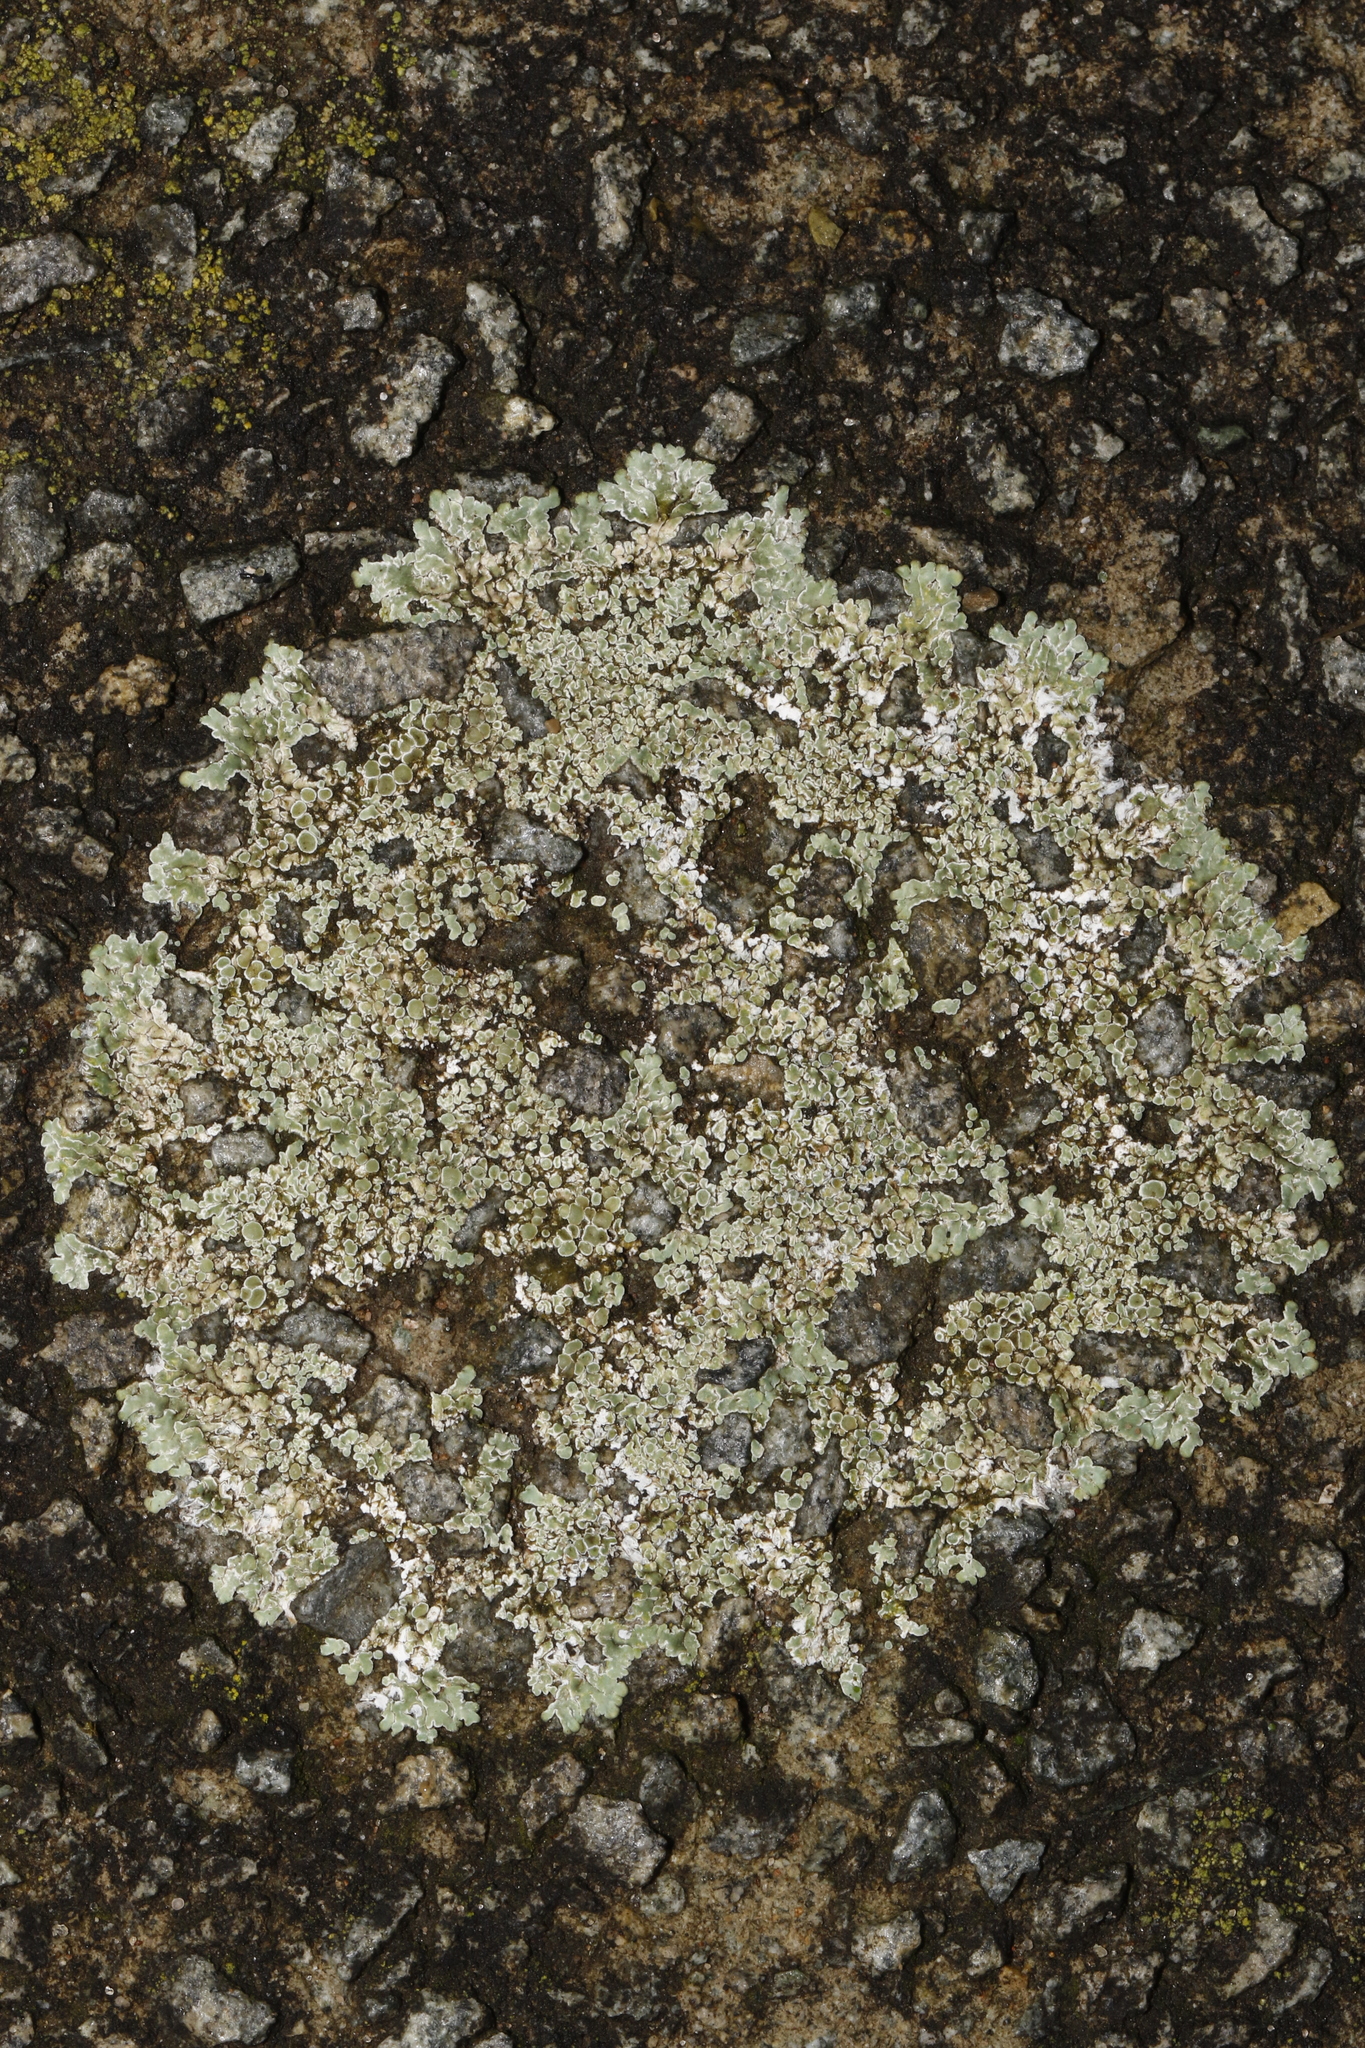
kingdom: Fungi
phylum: Ascomycota
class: Lecanoromycetes
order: Lecanorales
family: Lecanoraceae
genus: Protoparmeliopsis
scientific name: Protoparmeliopsis muralis
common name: Stonewall rim lichen
